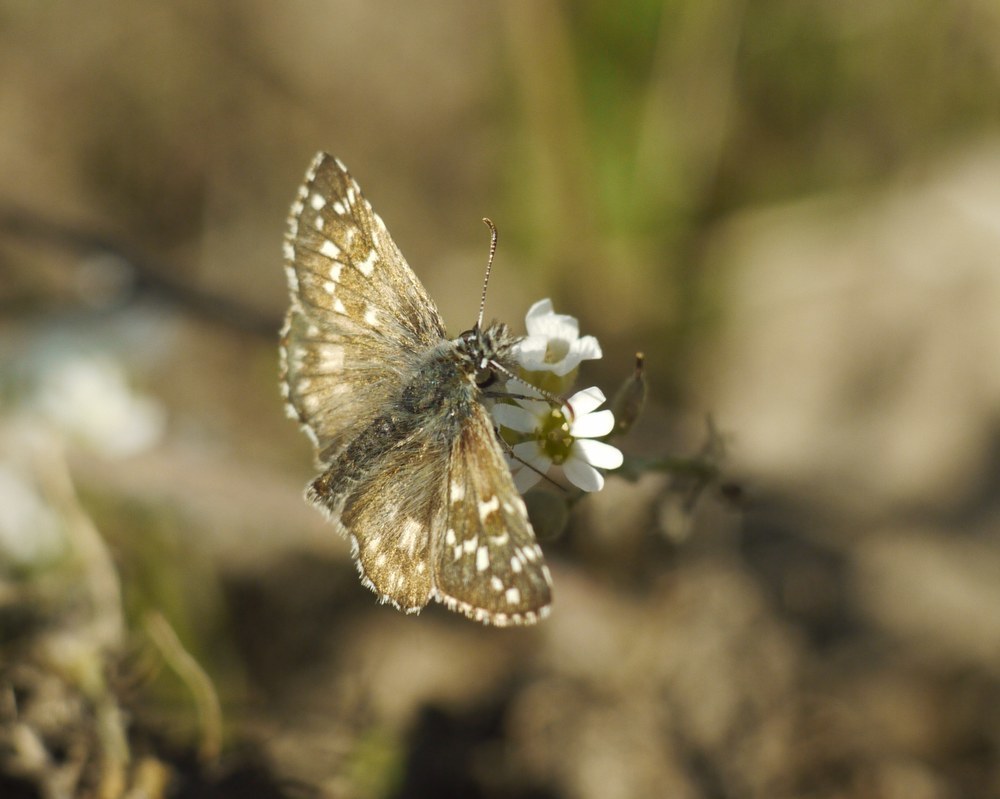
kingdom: Animalia
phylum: Arthropoda
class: Insecta
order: Lepidoptera
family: Hesperiidae
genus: Pyrgus
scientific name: Pyrgus armoricanus
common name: Oberthür's grizzled skipper
